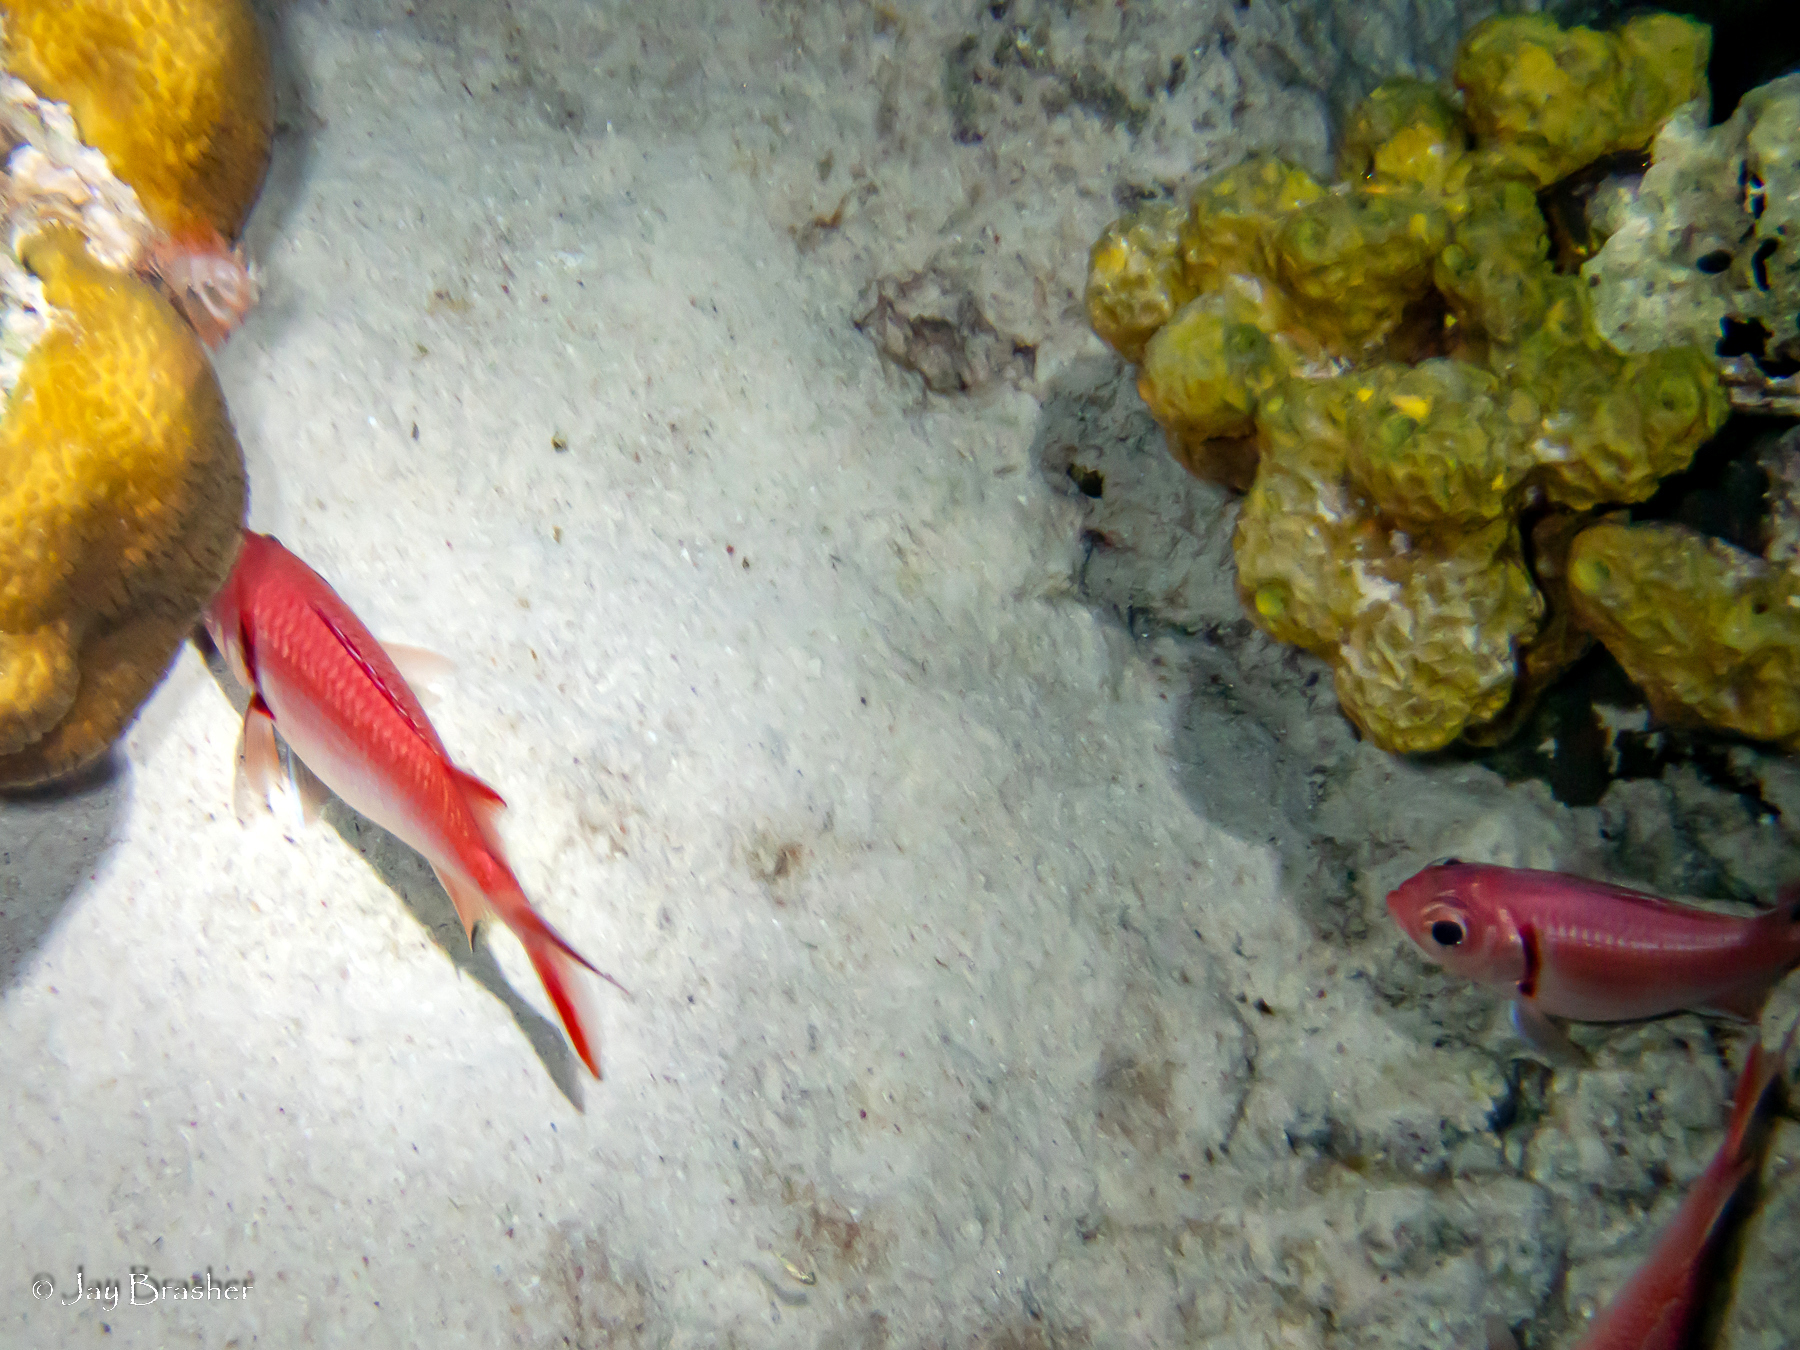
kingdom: Animalia
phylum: Porifera
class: Demospongiae
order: Verongiida
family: Aplysinidae
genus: Verongula
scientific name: Verongula rigida
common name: Pitted sponge
